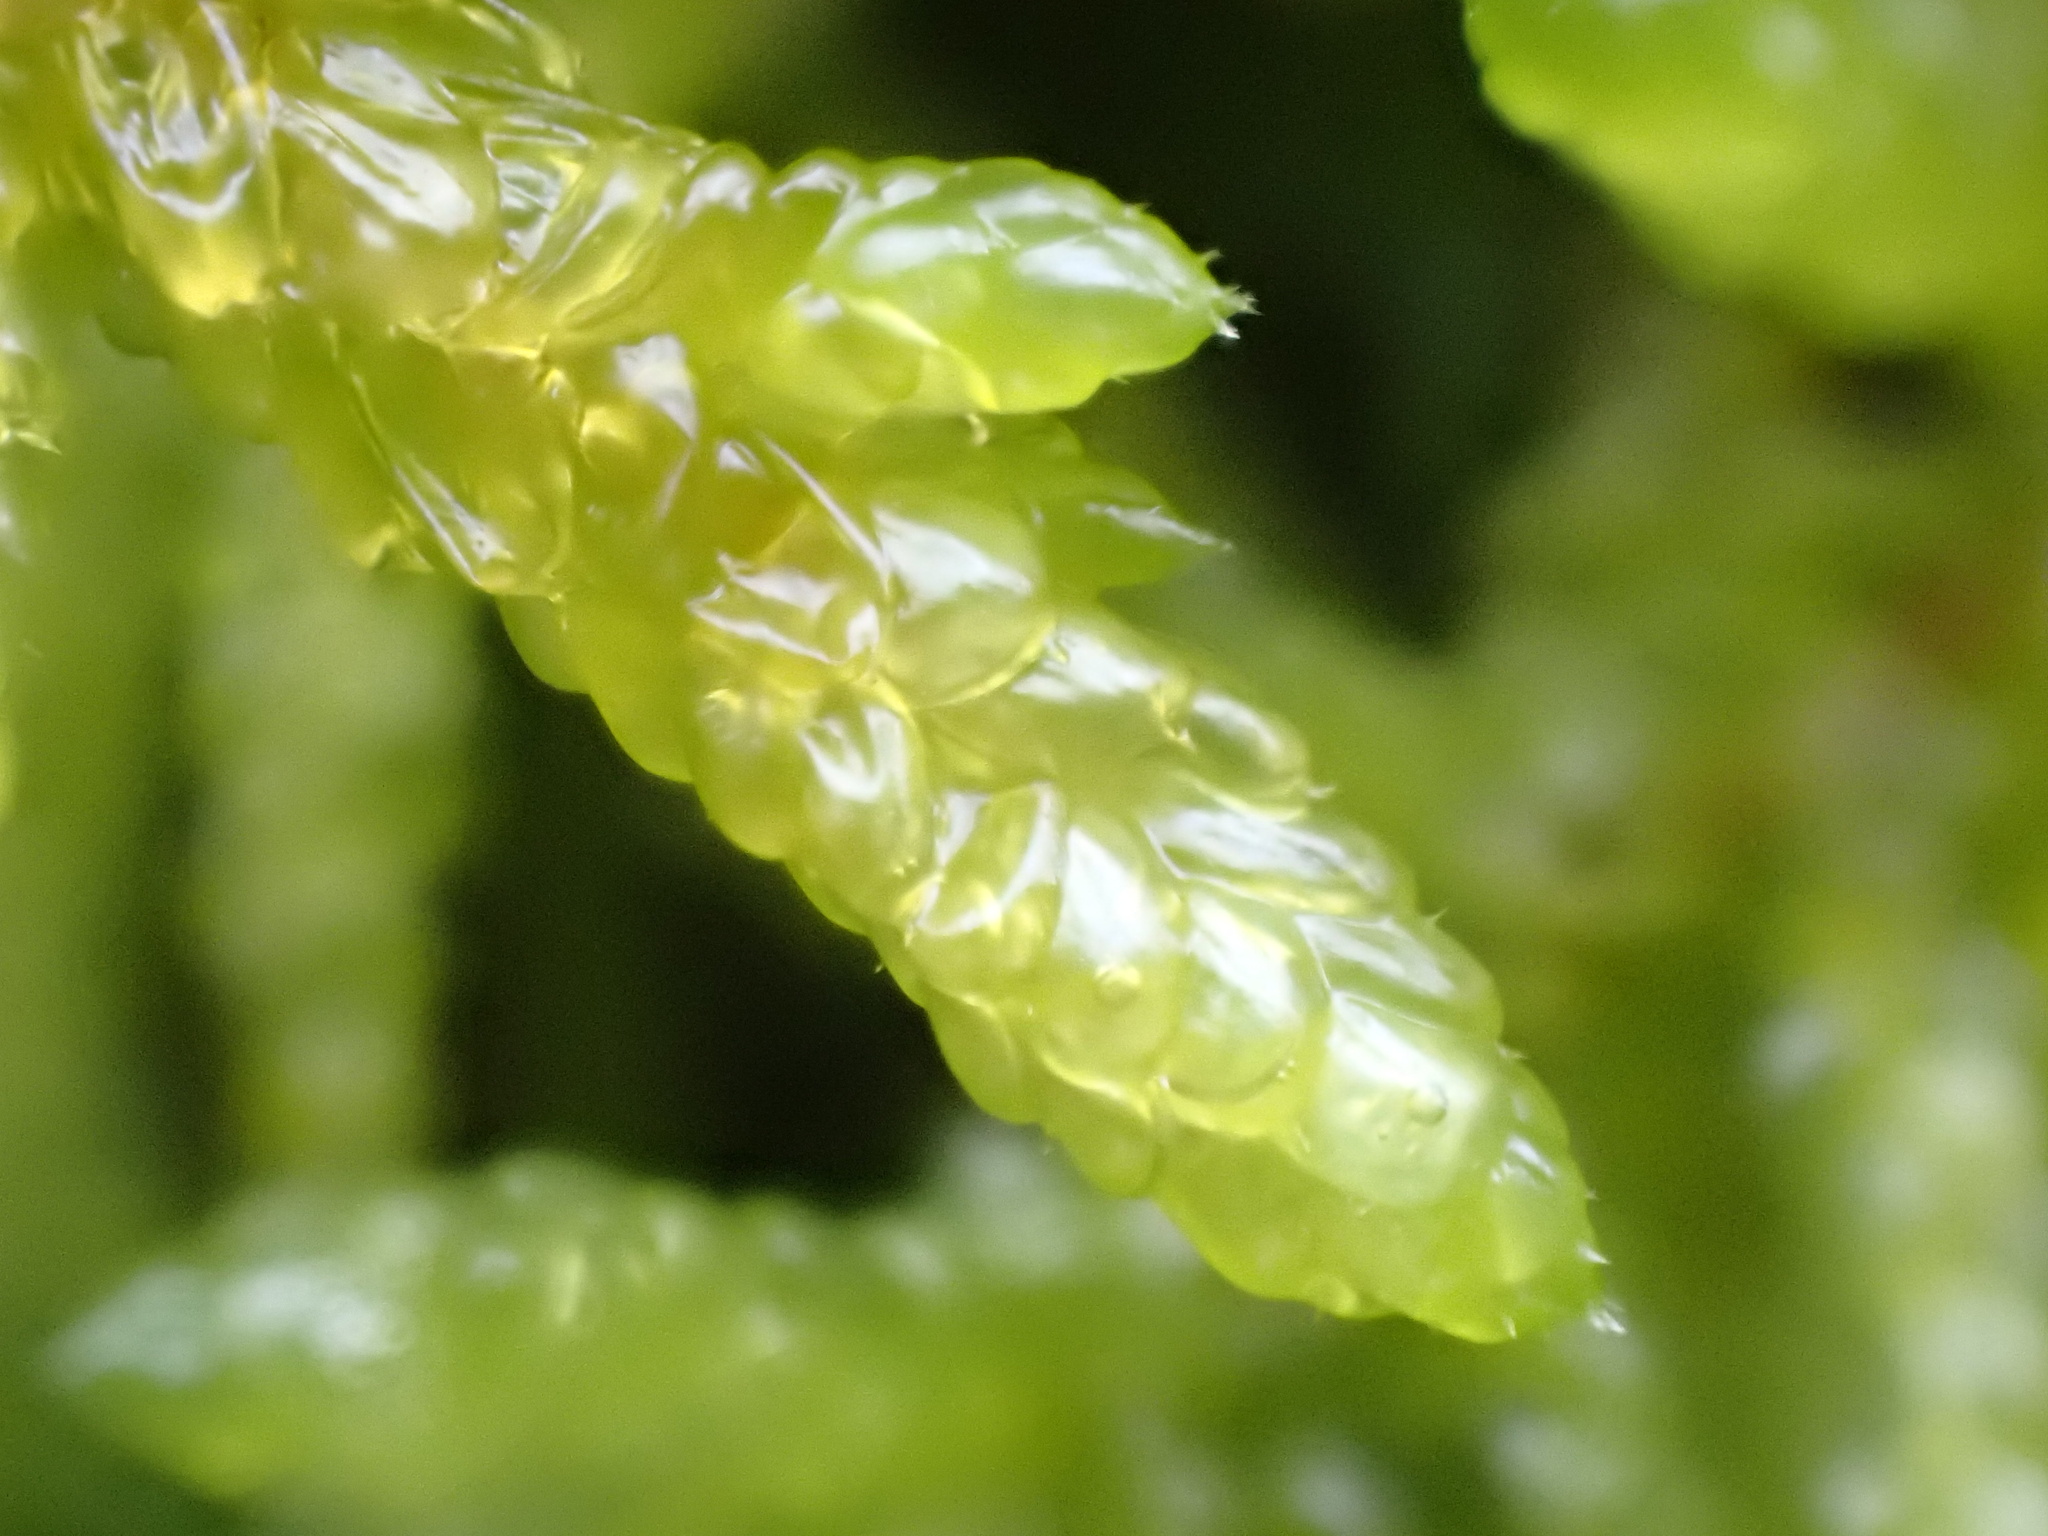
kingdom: Plantae
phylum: Bryophyta
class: Bryopsida
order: Hypnales
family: Brachytheciaceae
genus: Pseudoscleropodium
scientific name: Pseudoscleropodium purum
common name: Neat feather-moss
